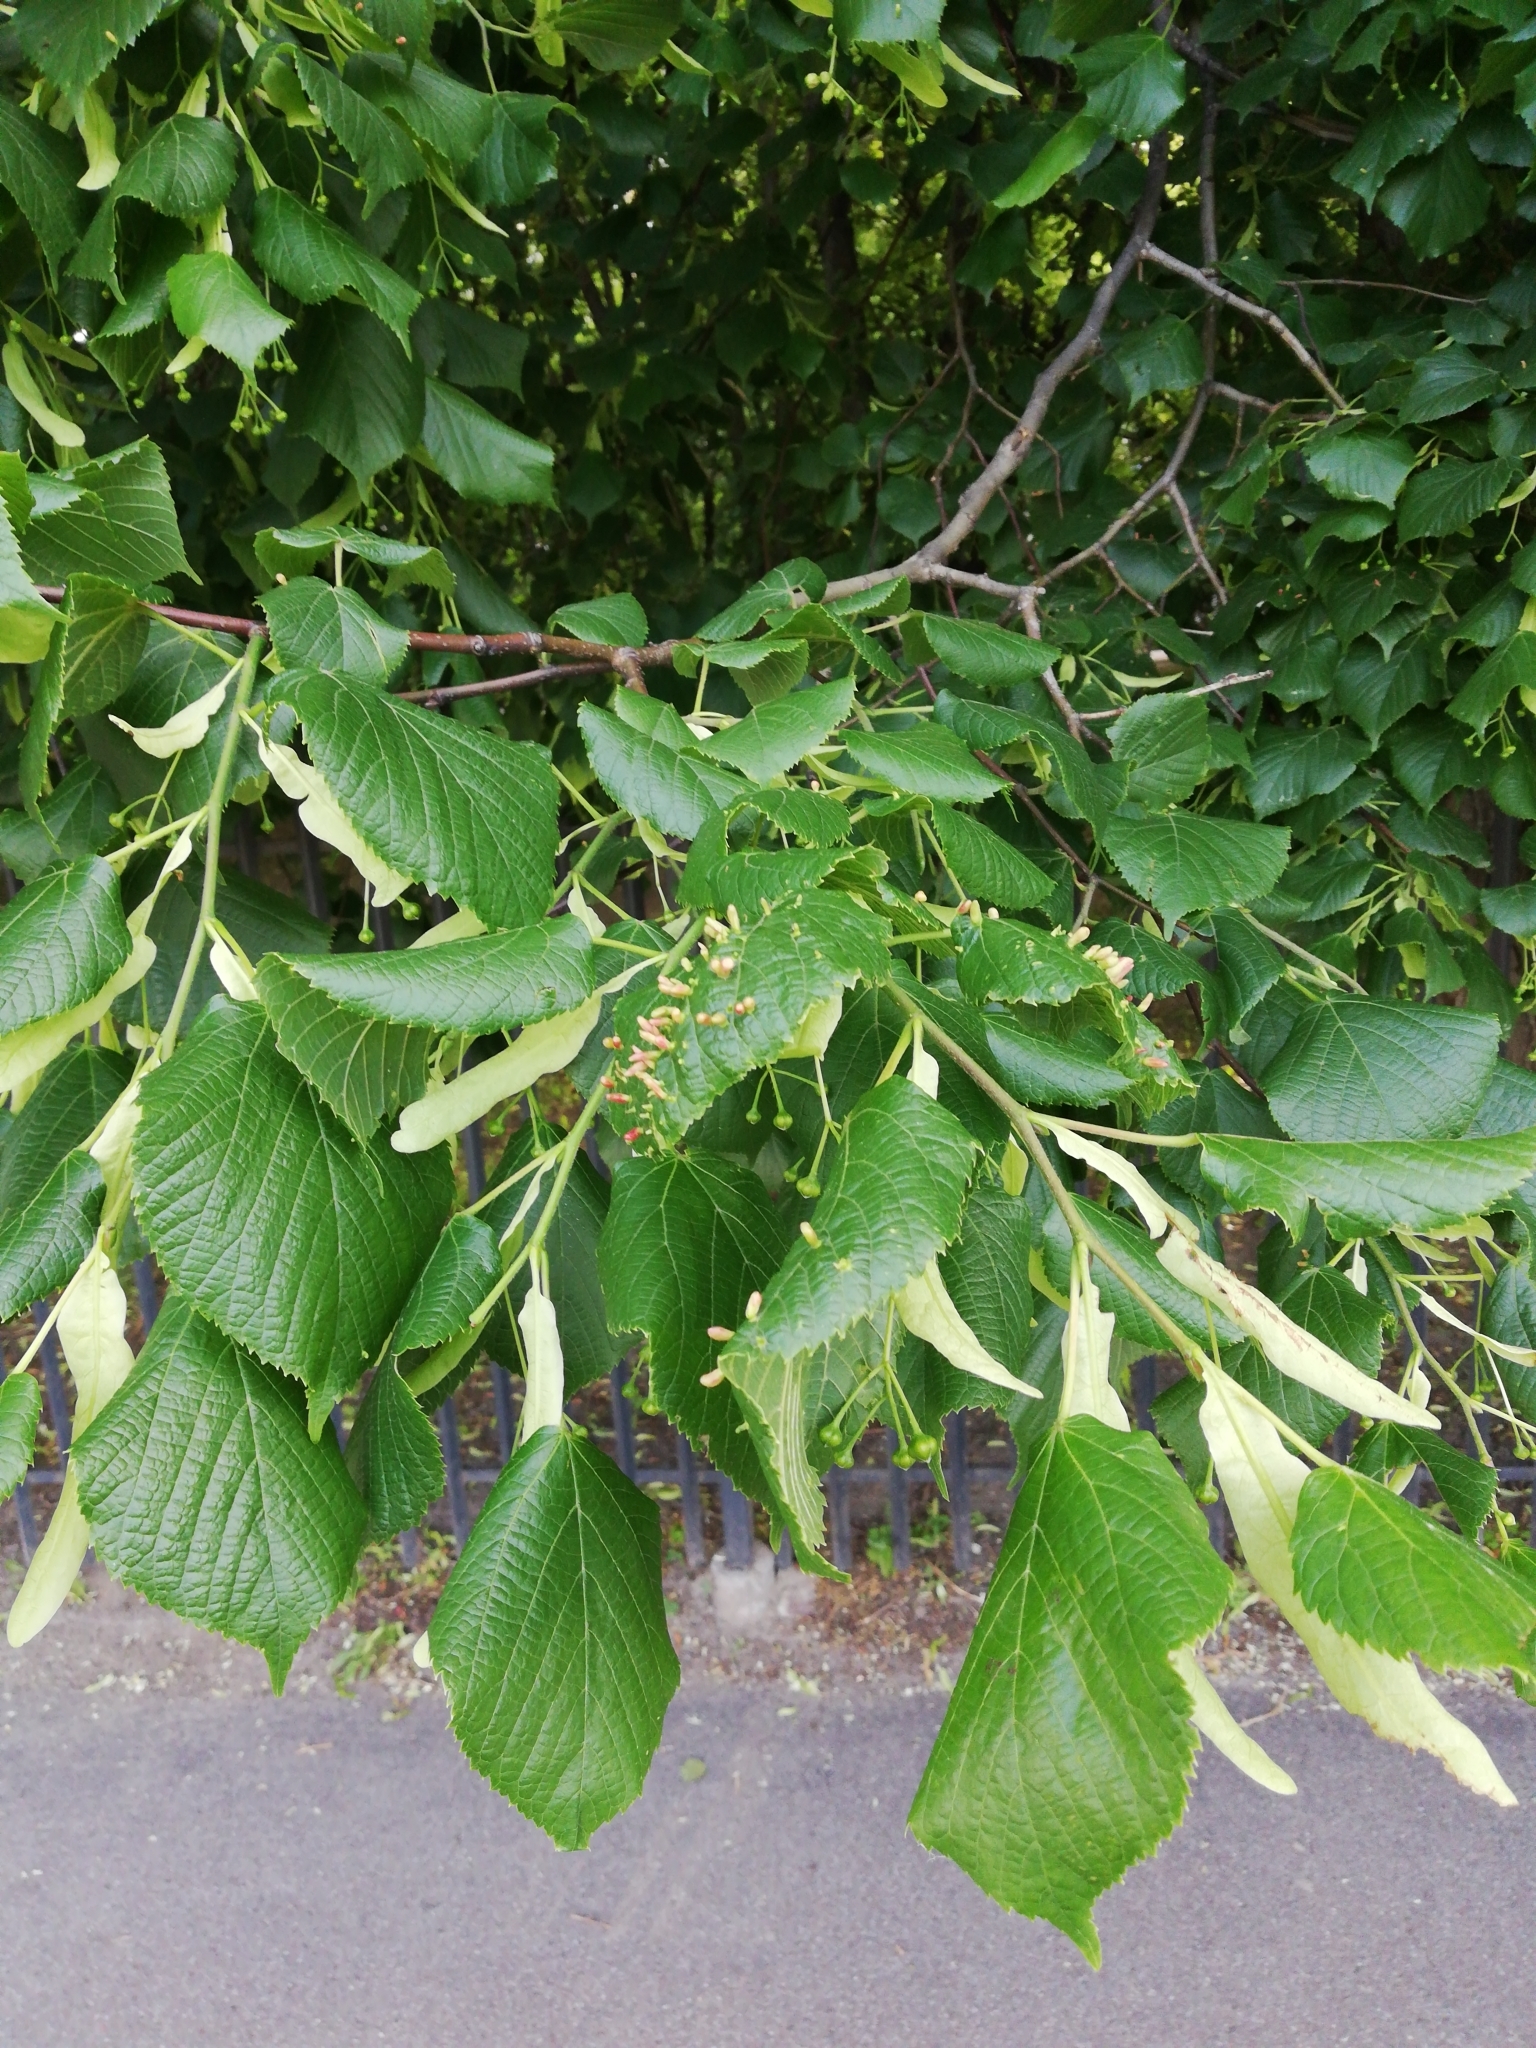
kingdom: Animalia
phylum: Arthropoda
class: Arachnida
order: Trombidiformes
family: Eriophyidae
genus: Eriophyes
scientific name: Eriophyes tiliae
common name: Red nail gall mite
